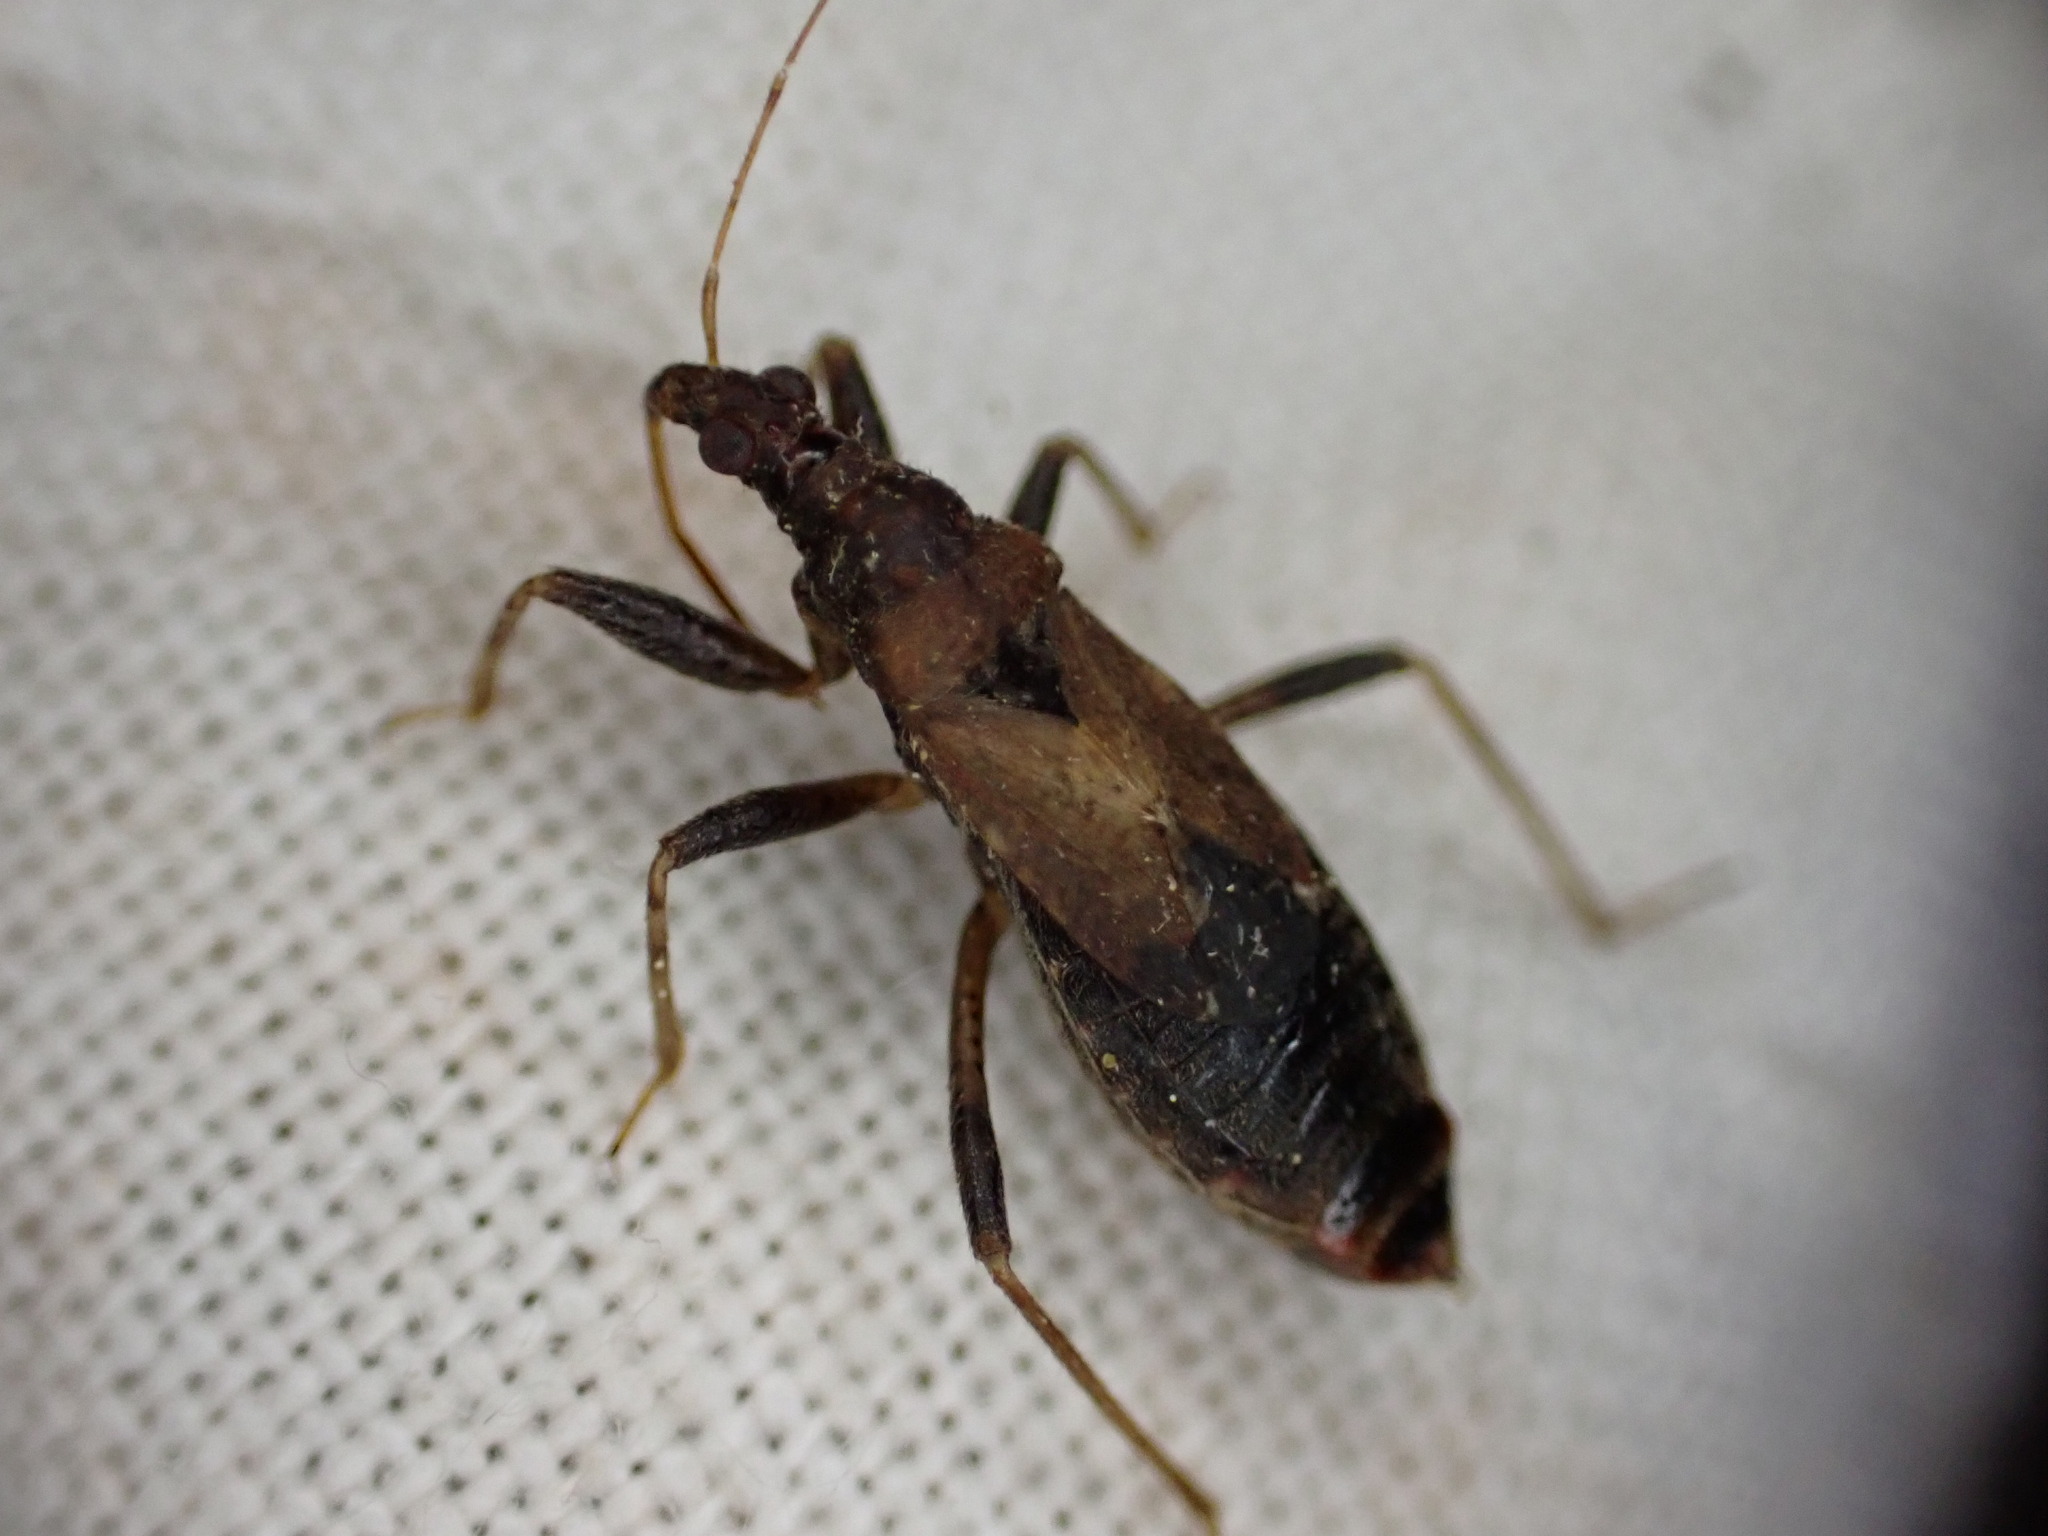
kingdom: Animalia
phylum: Arthropoda
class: Insecta
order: Hemiptera
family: Nabidae
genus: Himacerus
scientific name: Himacerus mirmicoides
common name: Ant damsel bug
